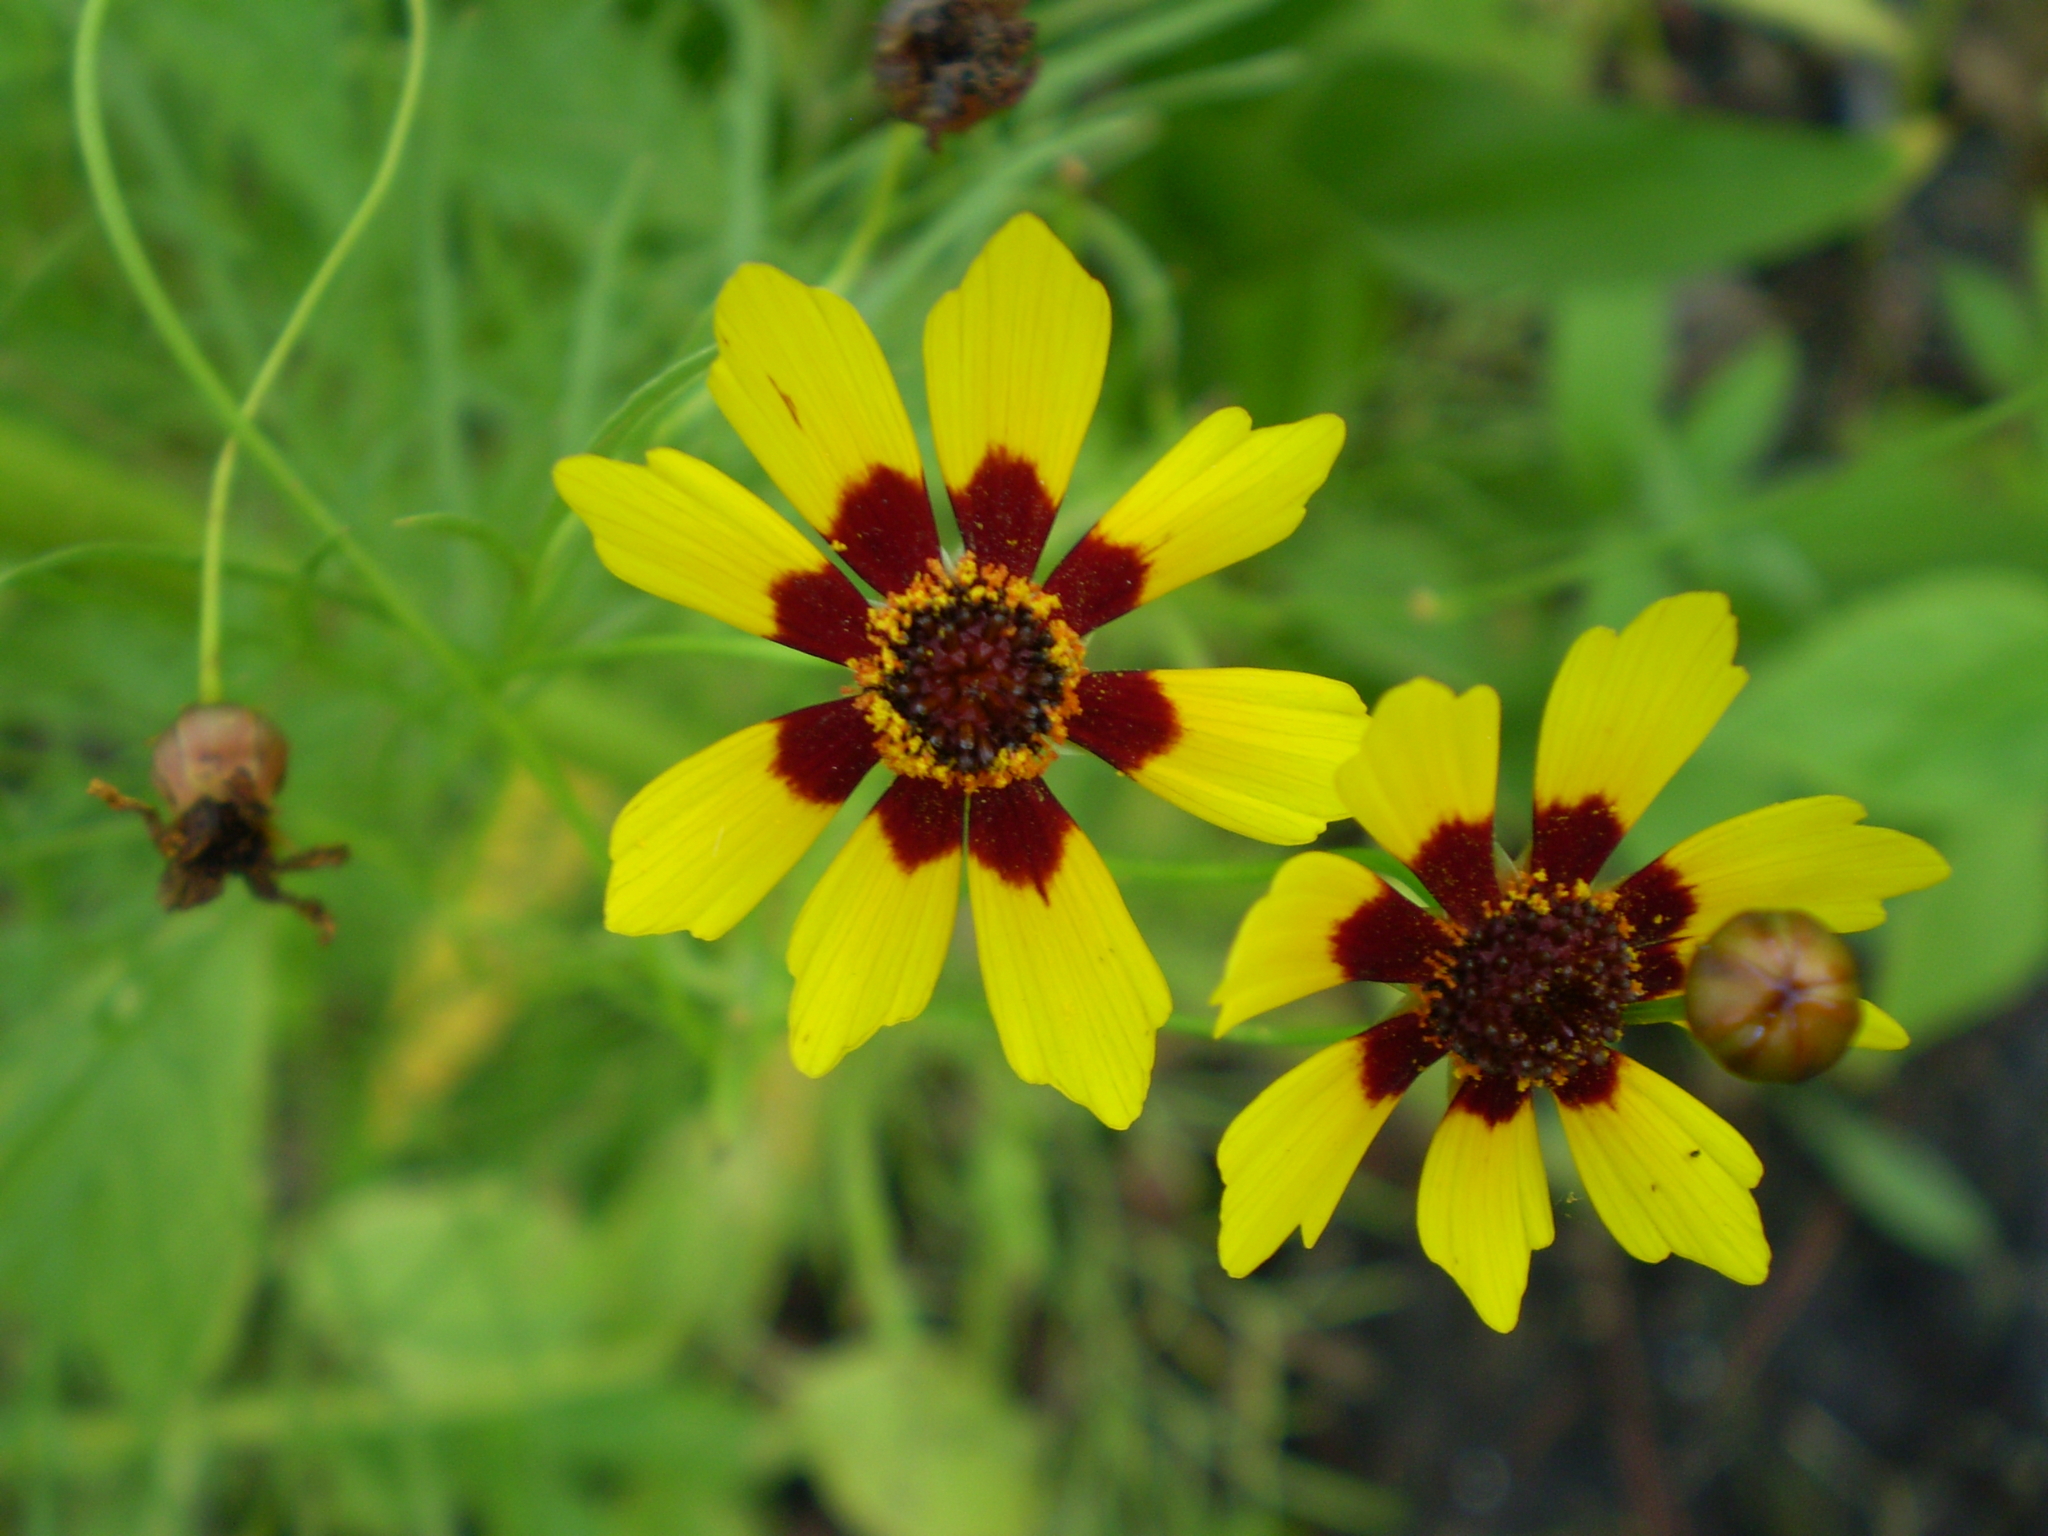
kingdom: Plantae
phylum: Tracheophyta
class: Magnoliopsida
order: Asterales
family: Asteraceae
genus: Coreopsis
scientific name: Coreopsis tinctoria
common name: Garden tickseed
